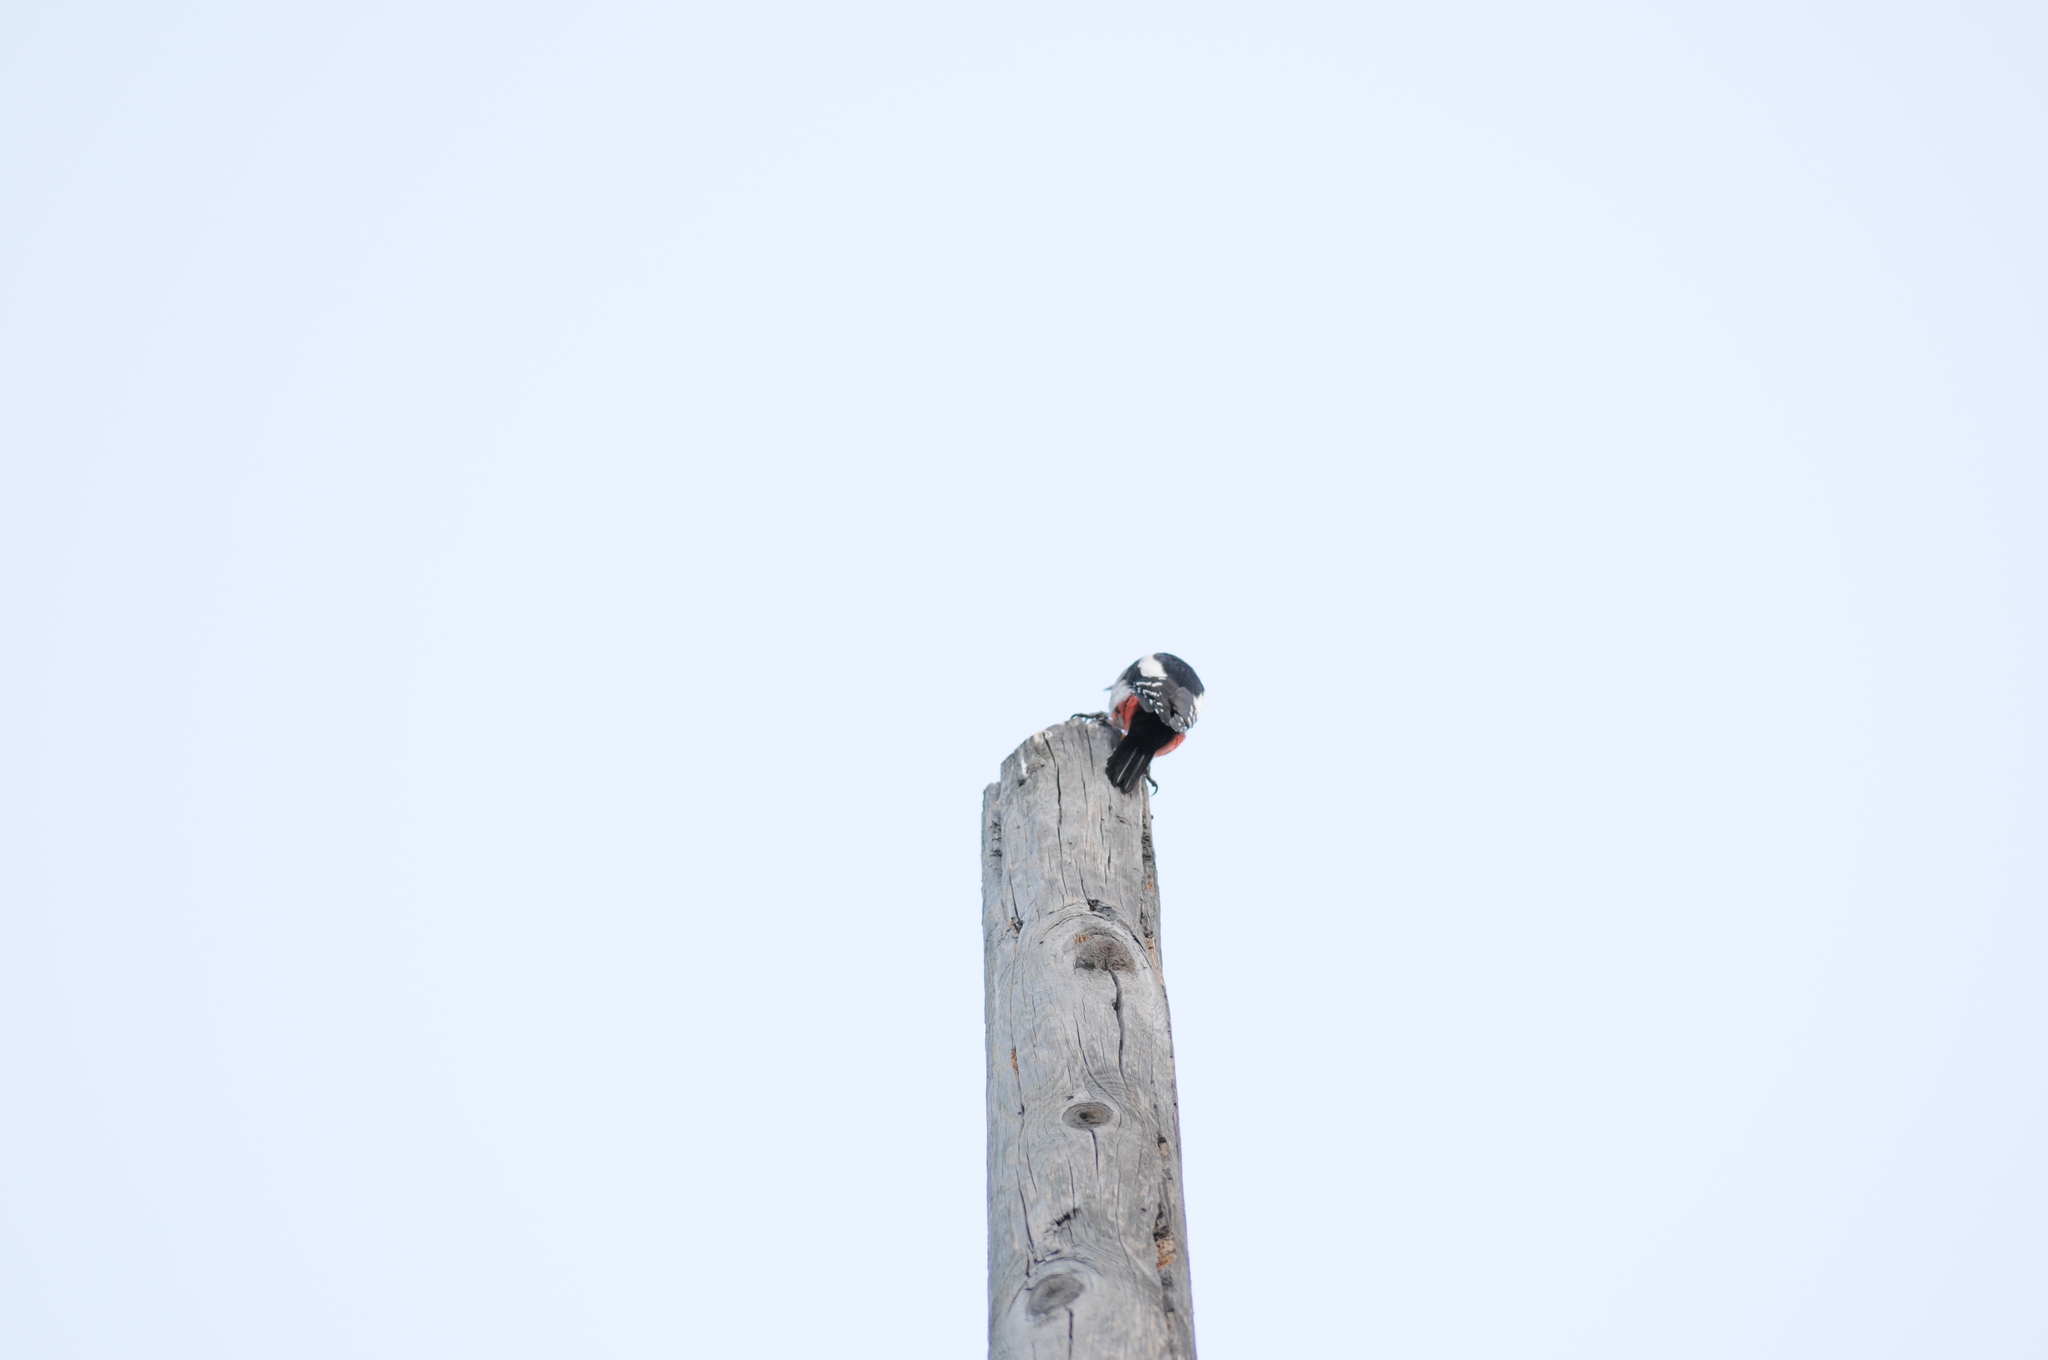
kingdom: Animalia
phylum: Chordata
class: Aves
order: Piciformes
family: Picidae
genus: Dendrocopos
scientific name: Dendrocopos major
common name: Great spotted woodpecker
